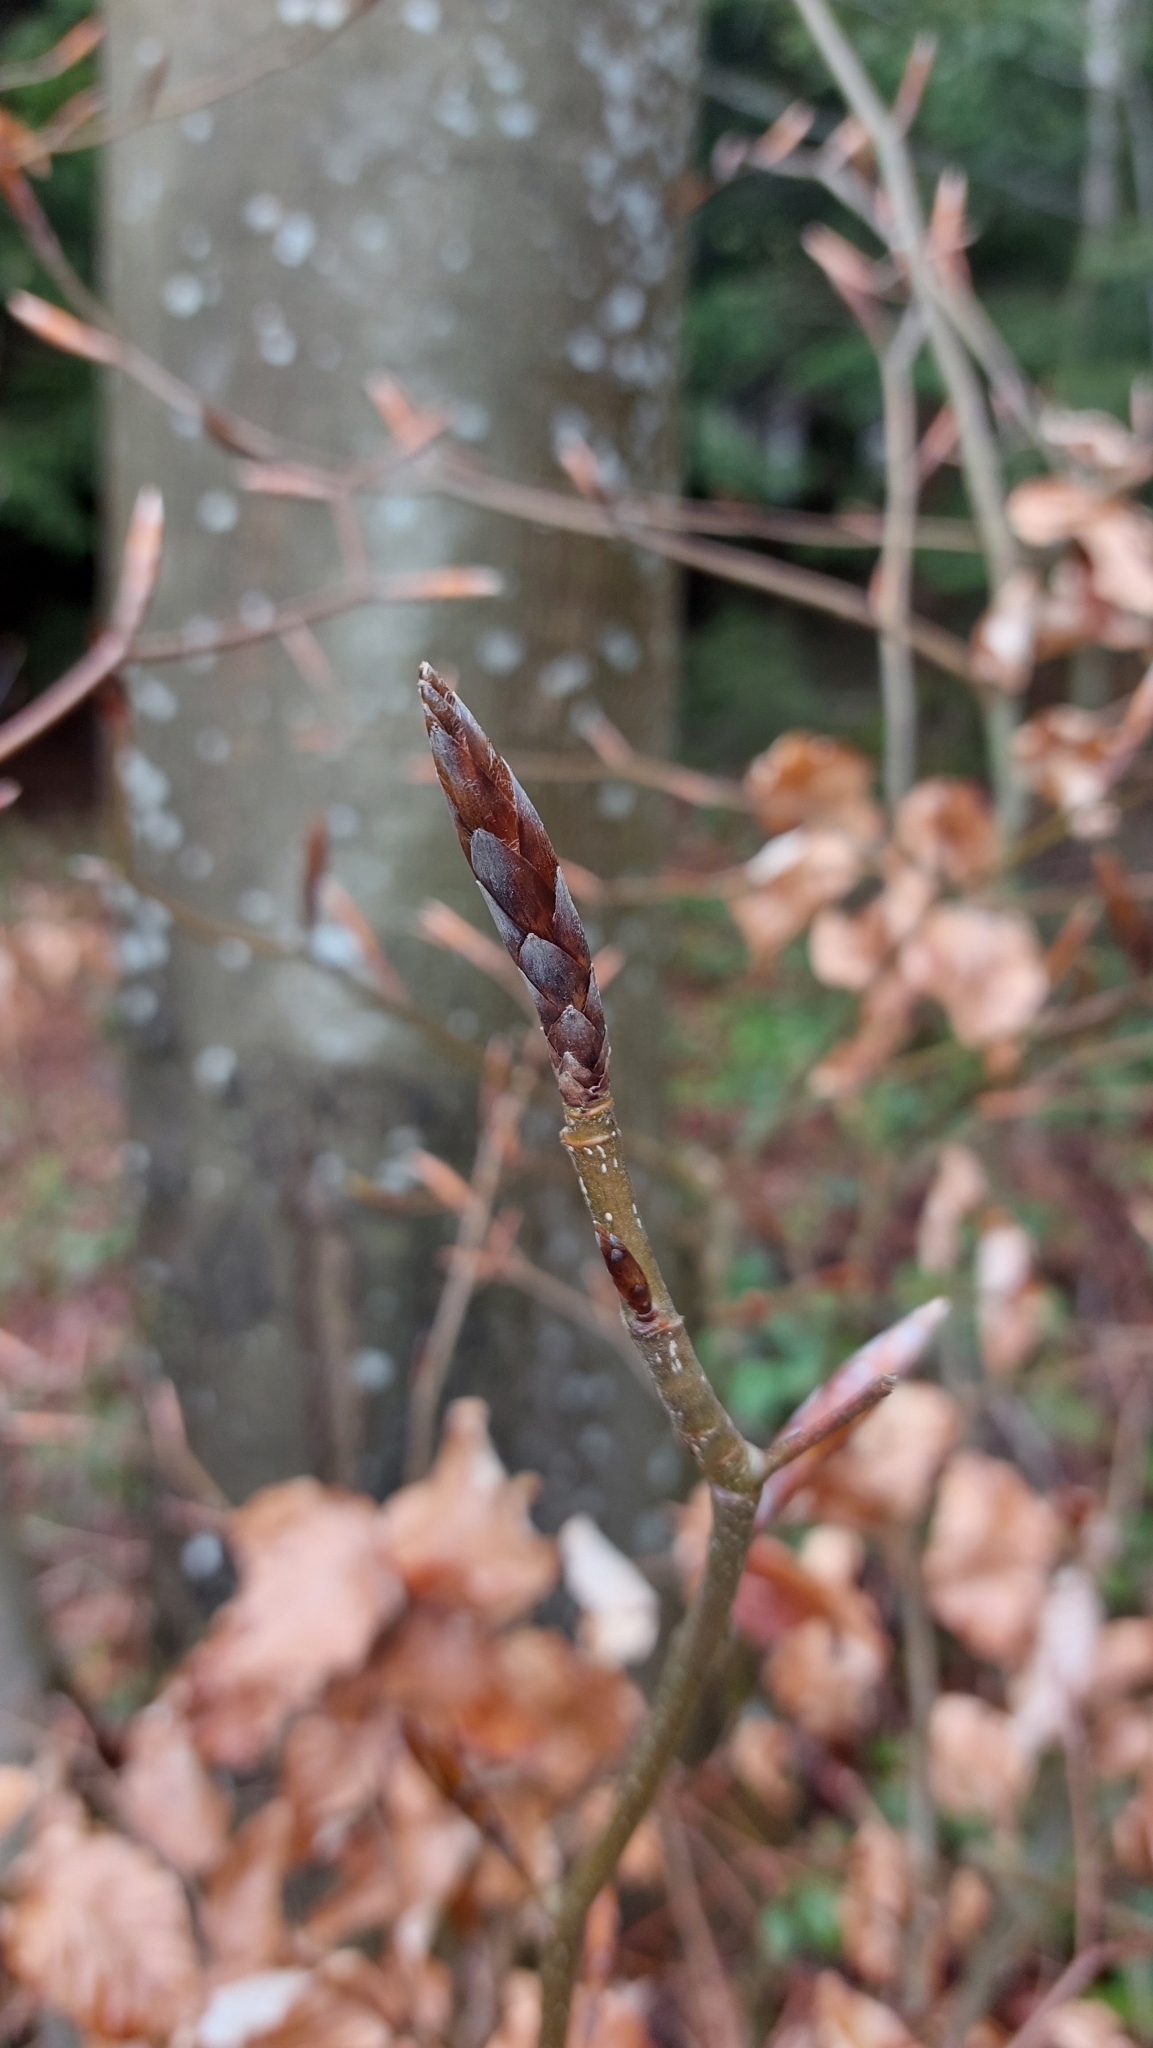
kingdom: Plantae
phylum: Tracheophyta
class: Magnoliopsida
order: Fagales
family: Fagaceae
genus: Fagus
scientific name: Fagus sylvatica
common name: Beech
